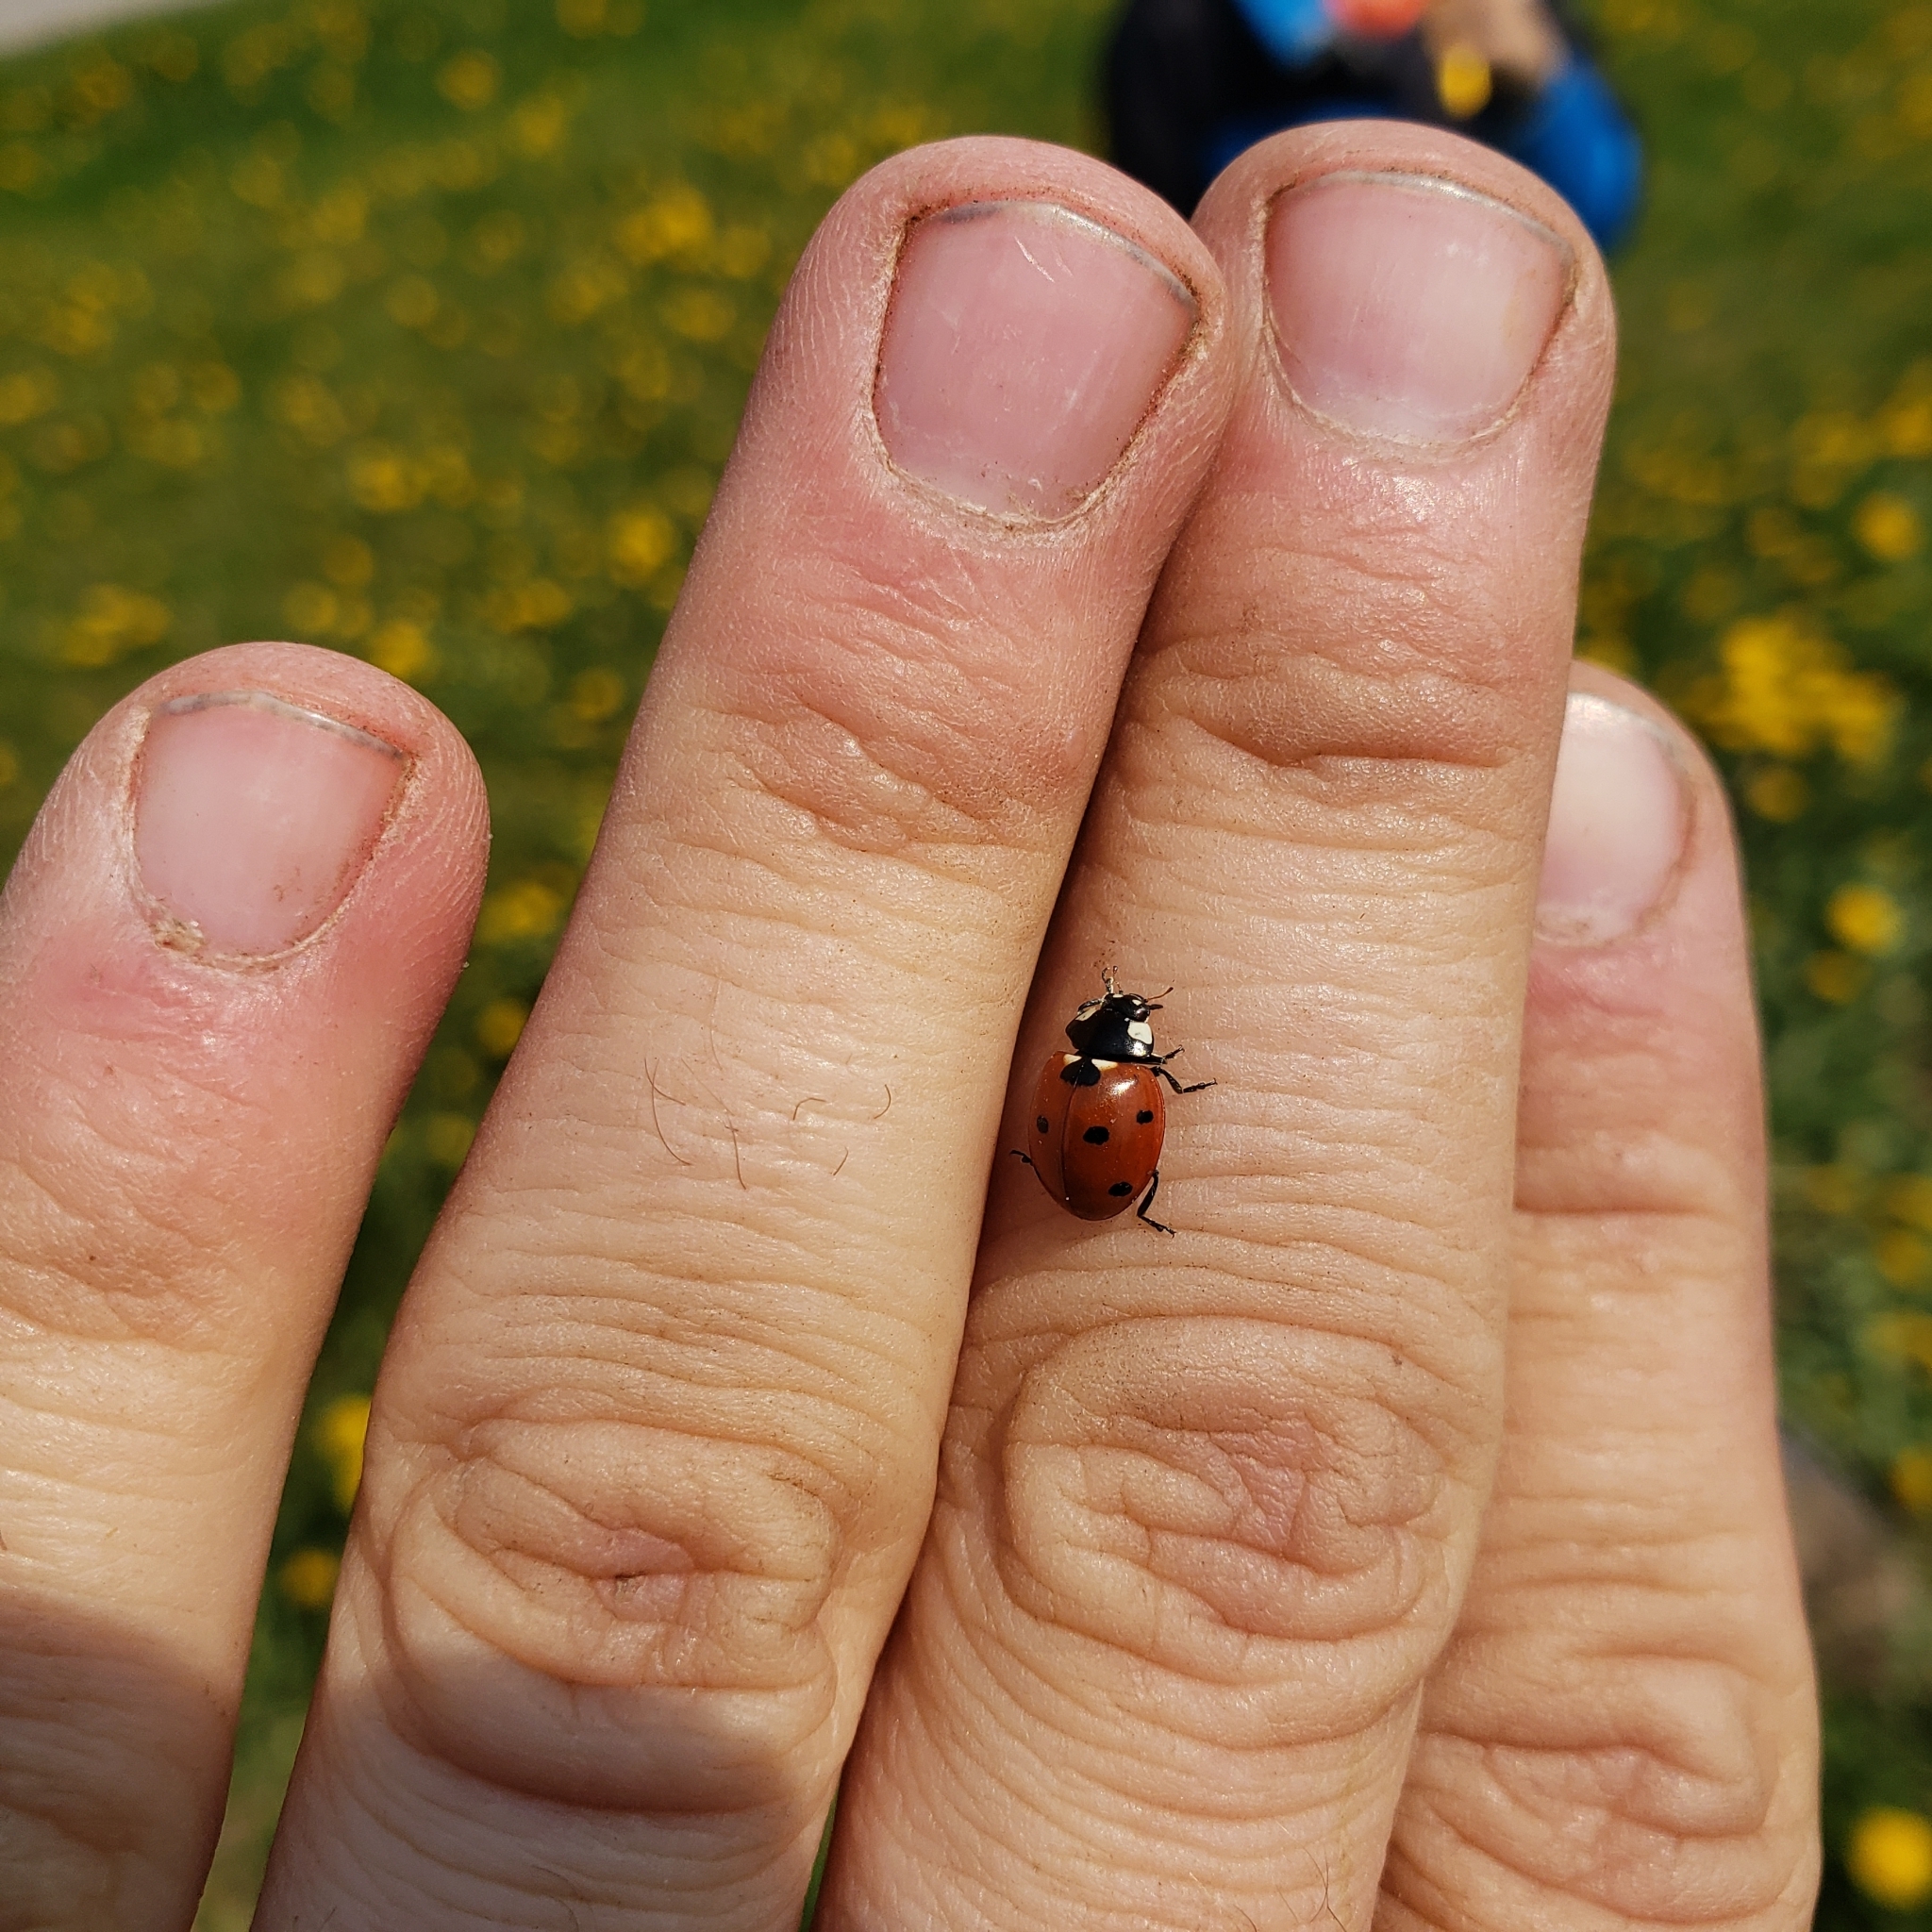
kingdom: Animalia
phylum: Arthropoda
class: Insecta
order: Coleoptera
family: Coccinellidae
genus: Coccinella
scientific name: Coccinella septempunctata
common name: Sevenspotted lady beetle
